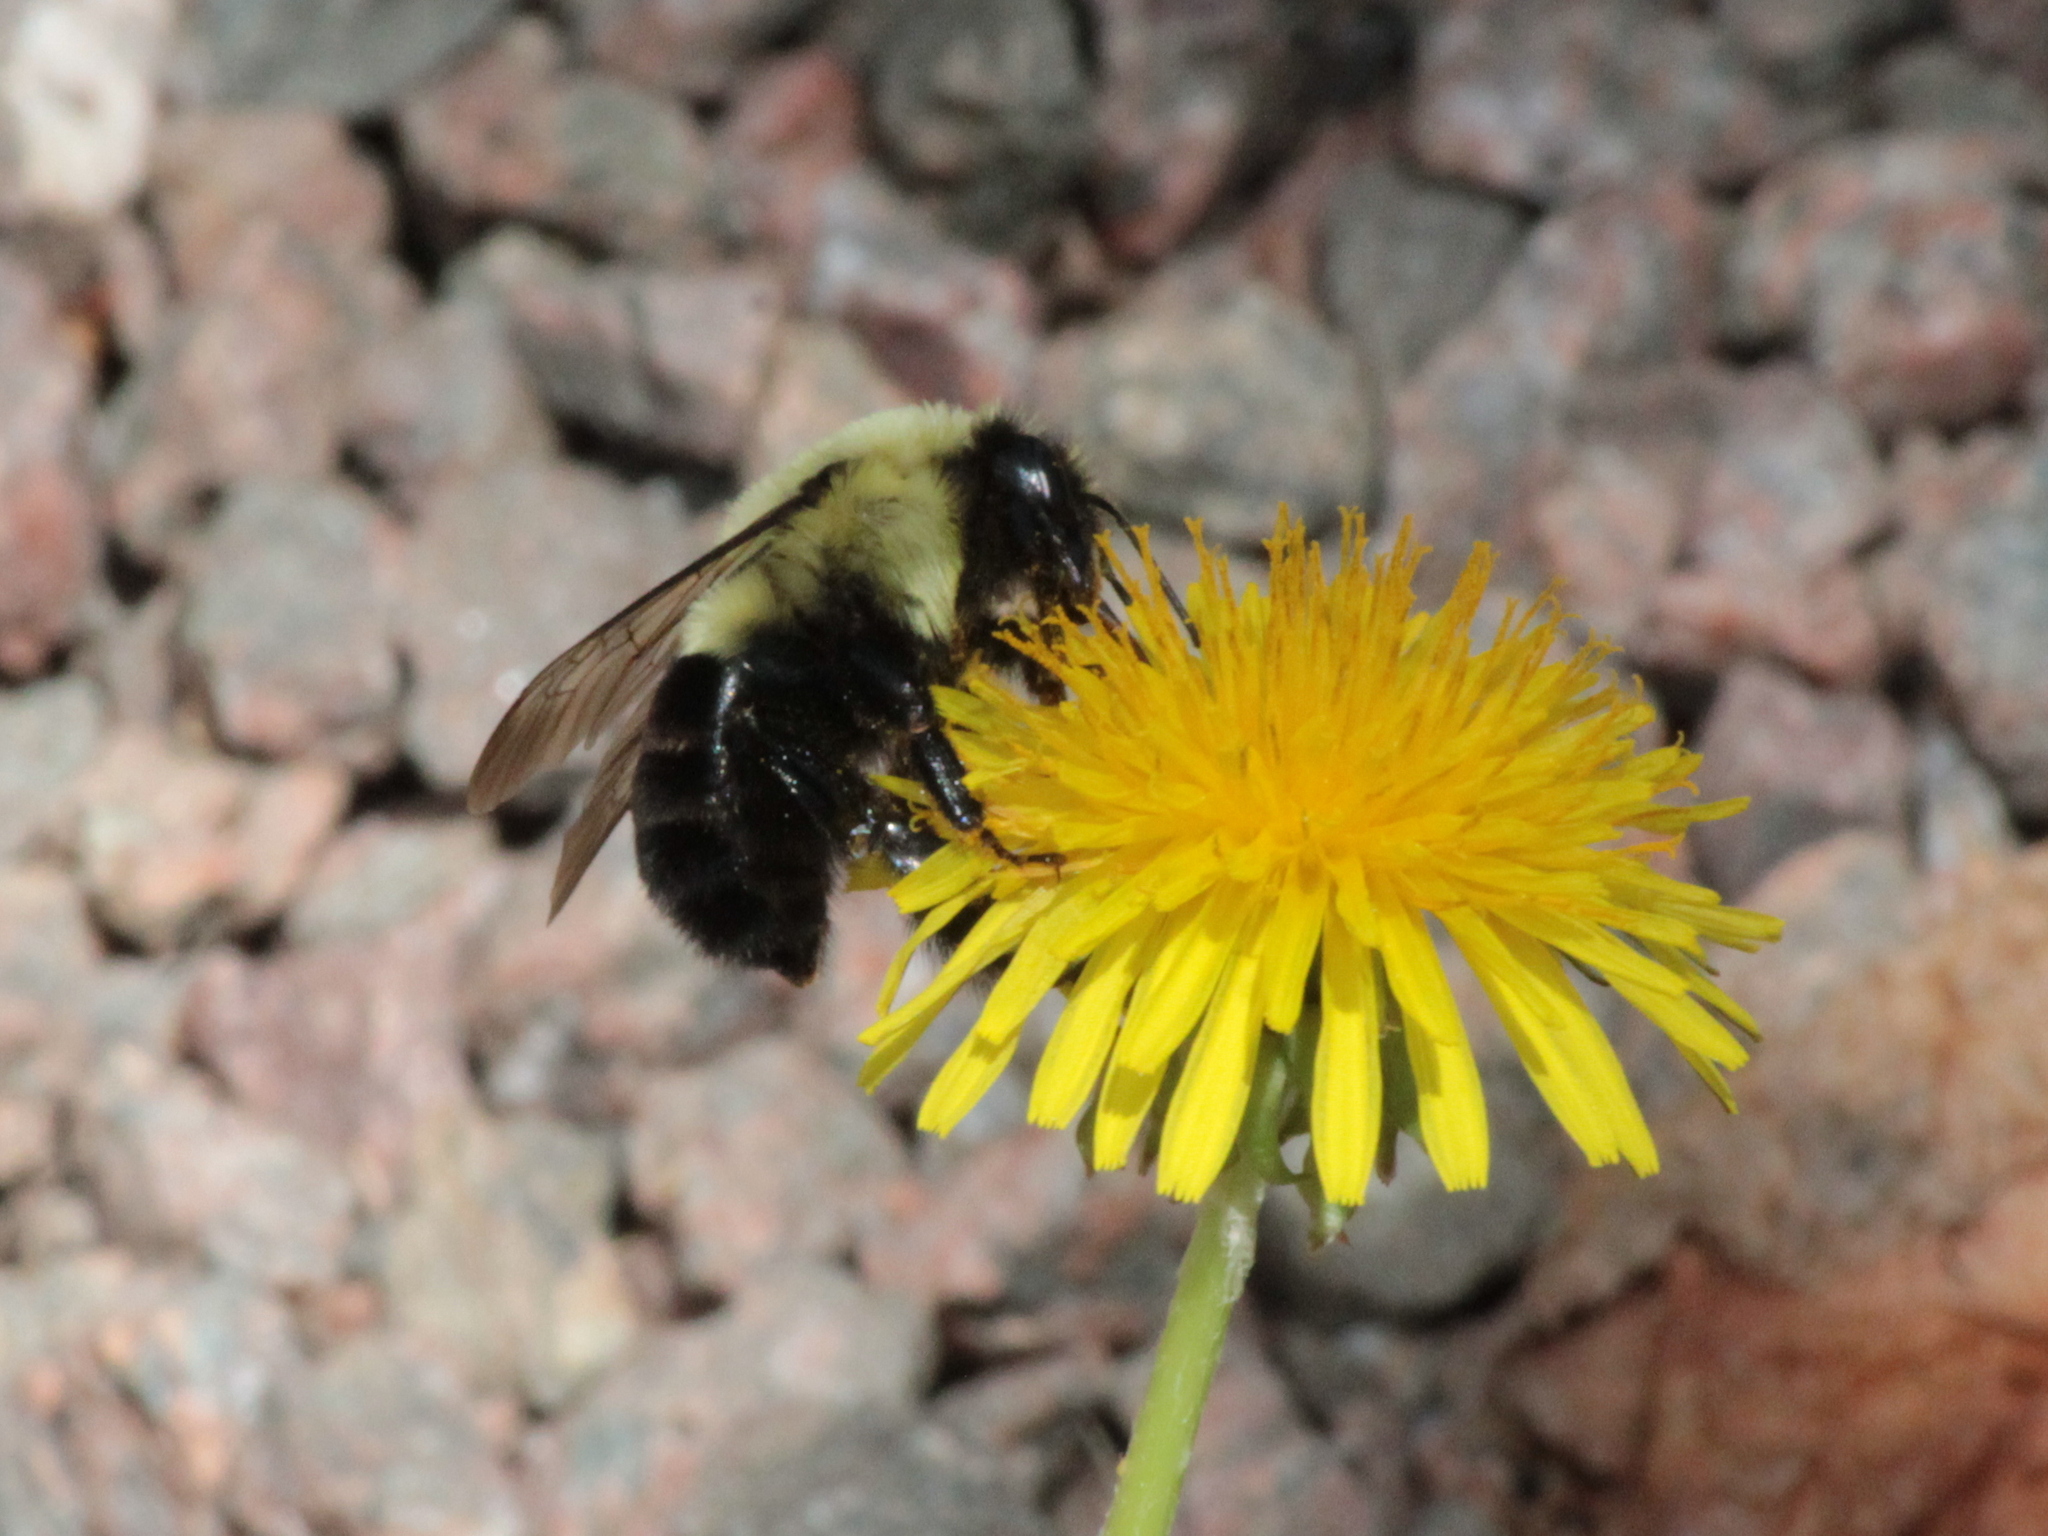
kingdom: Animalia
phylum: Arthropoda
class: Insecta
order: Hymenoptera
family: Apidae
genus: Bombus
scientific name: Bombus impatiens
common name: Common eastern bumble bee
